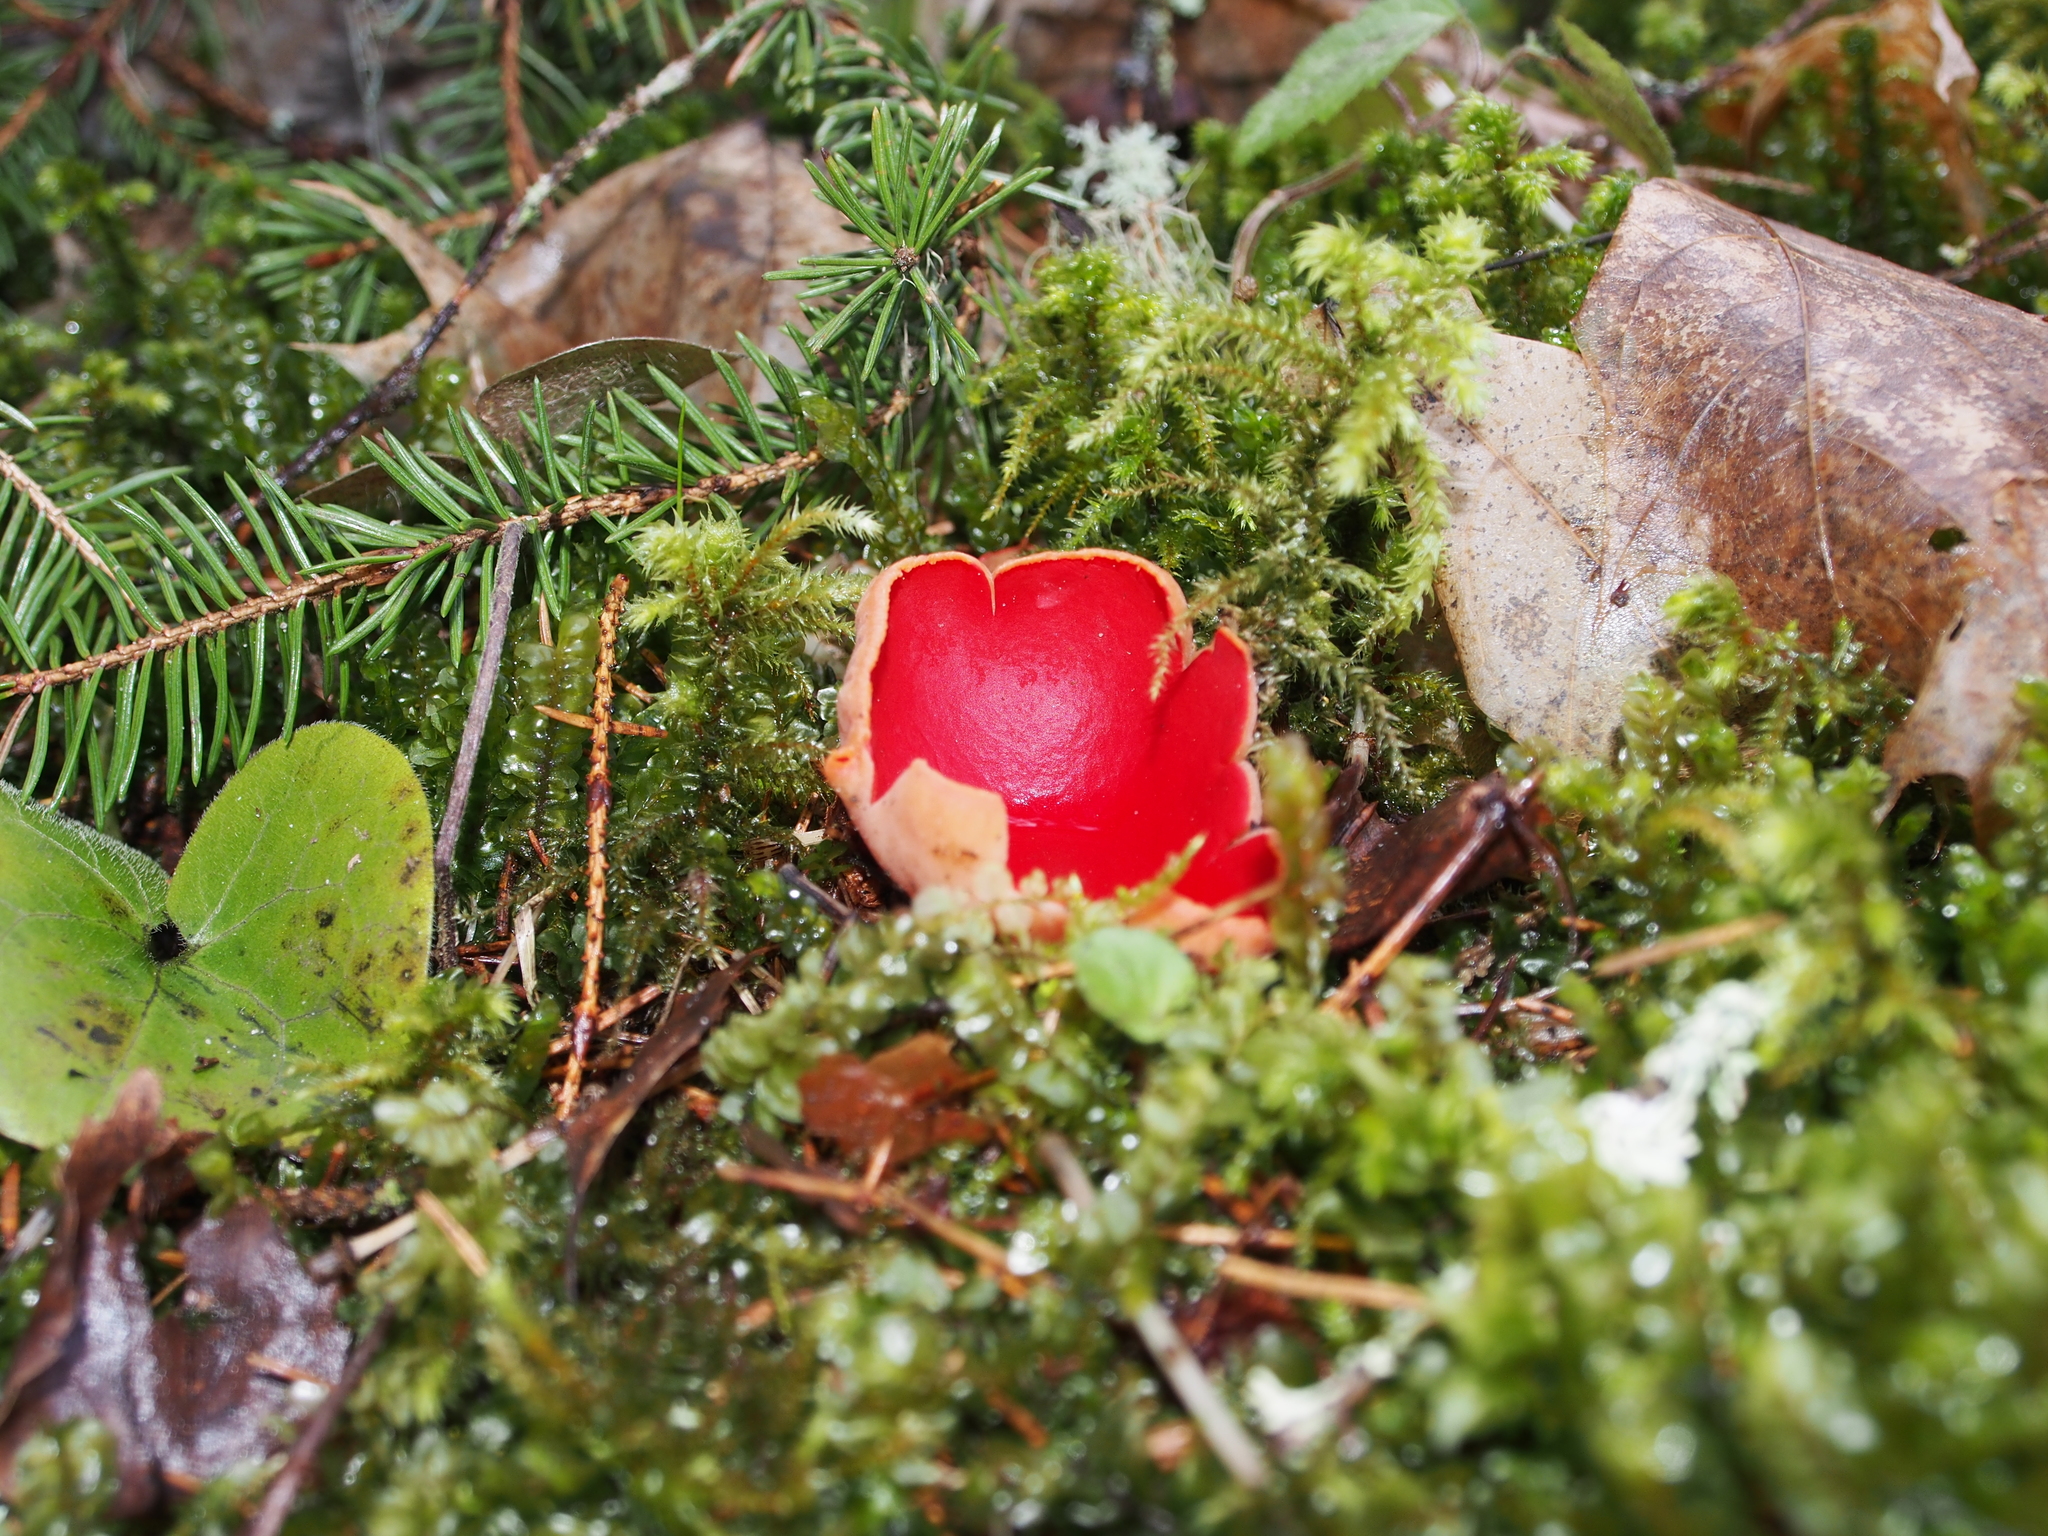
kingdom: Fungi
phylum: Ascomycota
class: Pezizomycetes
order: Pezizales
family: Sarcoscyphaceae
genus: Sarcoscypha
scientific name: Sarcoscypha austriaca
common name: Scarlet elfcup
